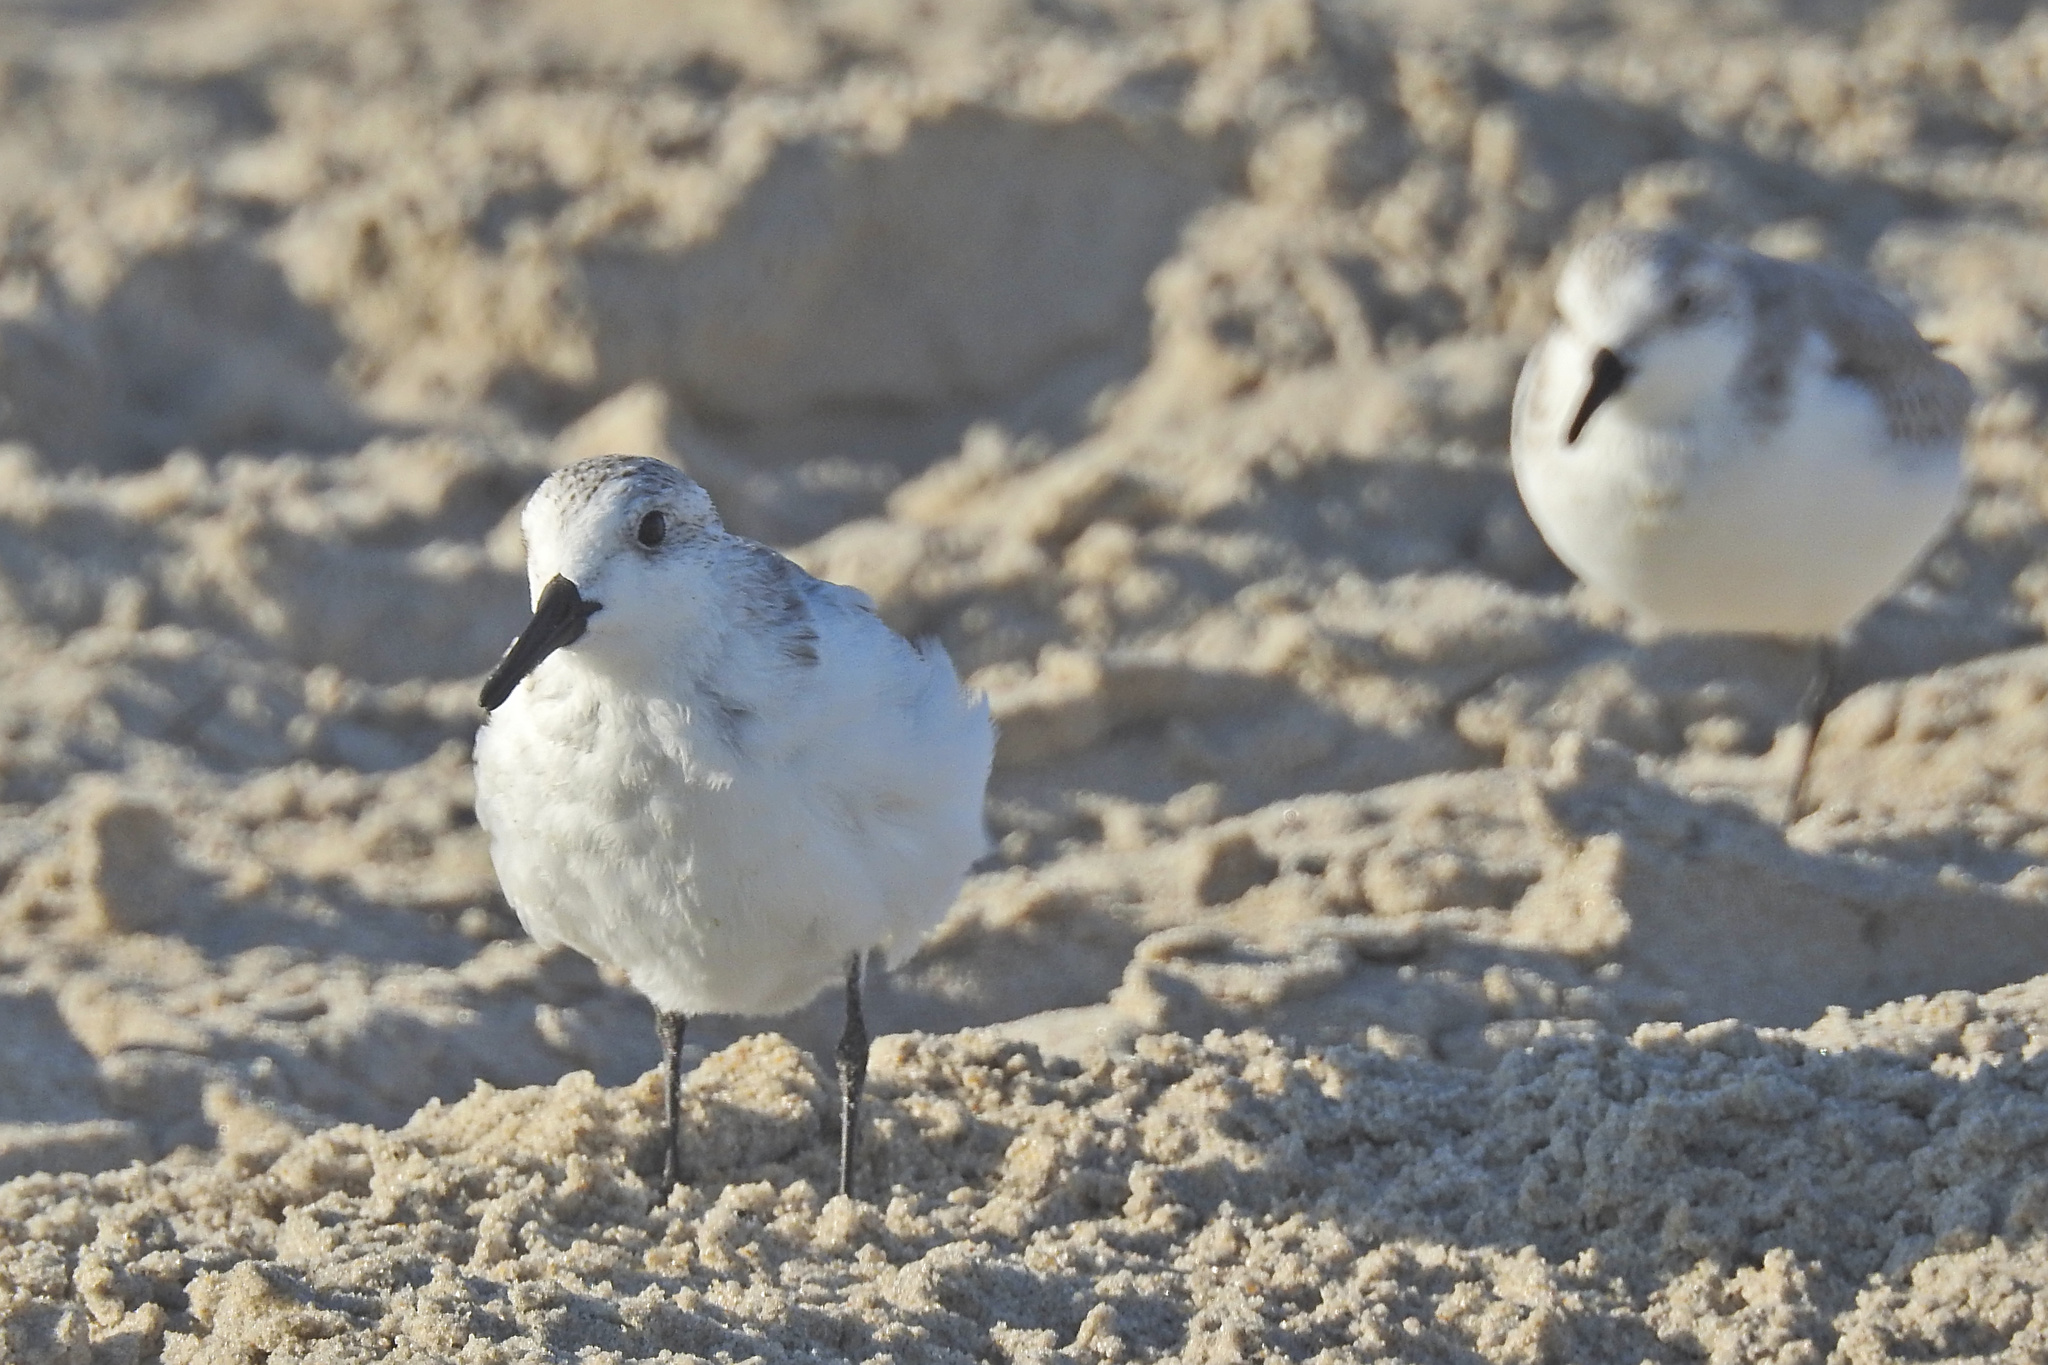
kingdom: Animalia
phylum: Chordata
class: Aves
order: Charadriiformes
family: Scolopacidae
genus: Calidris
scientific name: Calidris alba
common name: Sanderling
